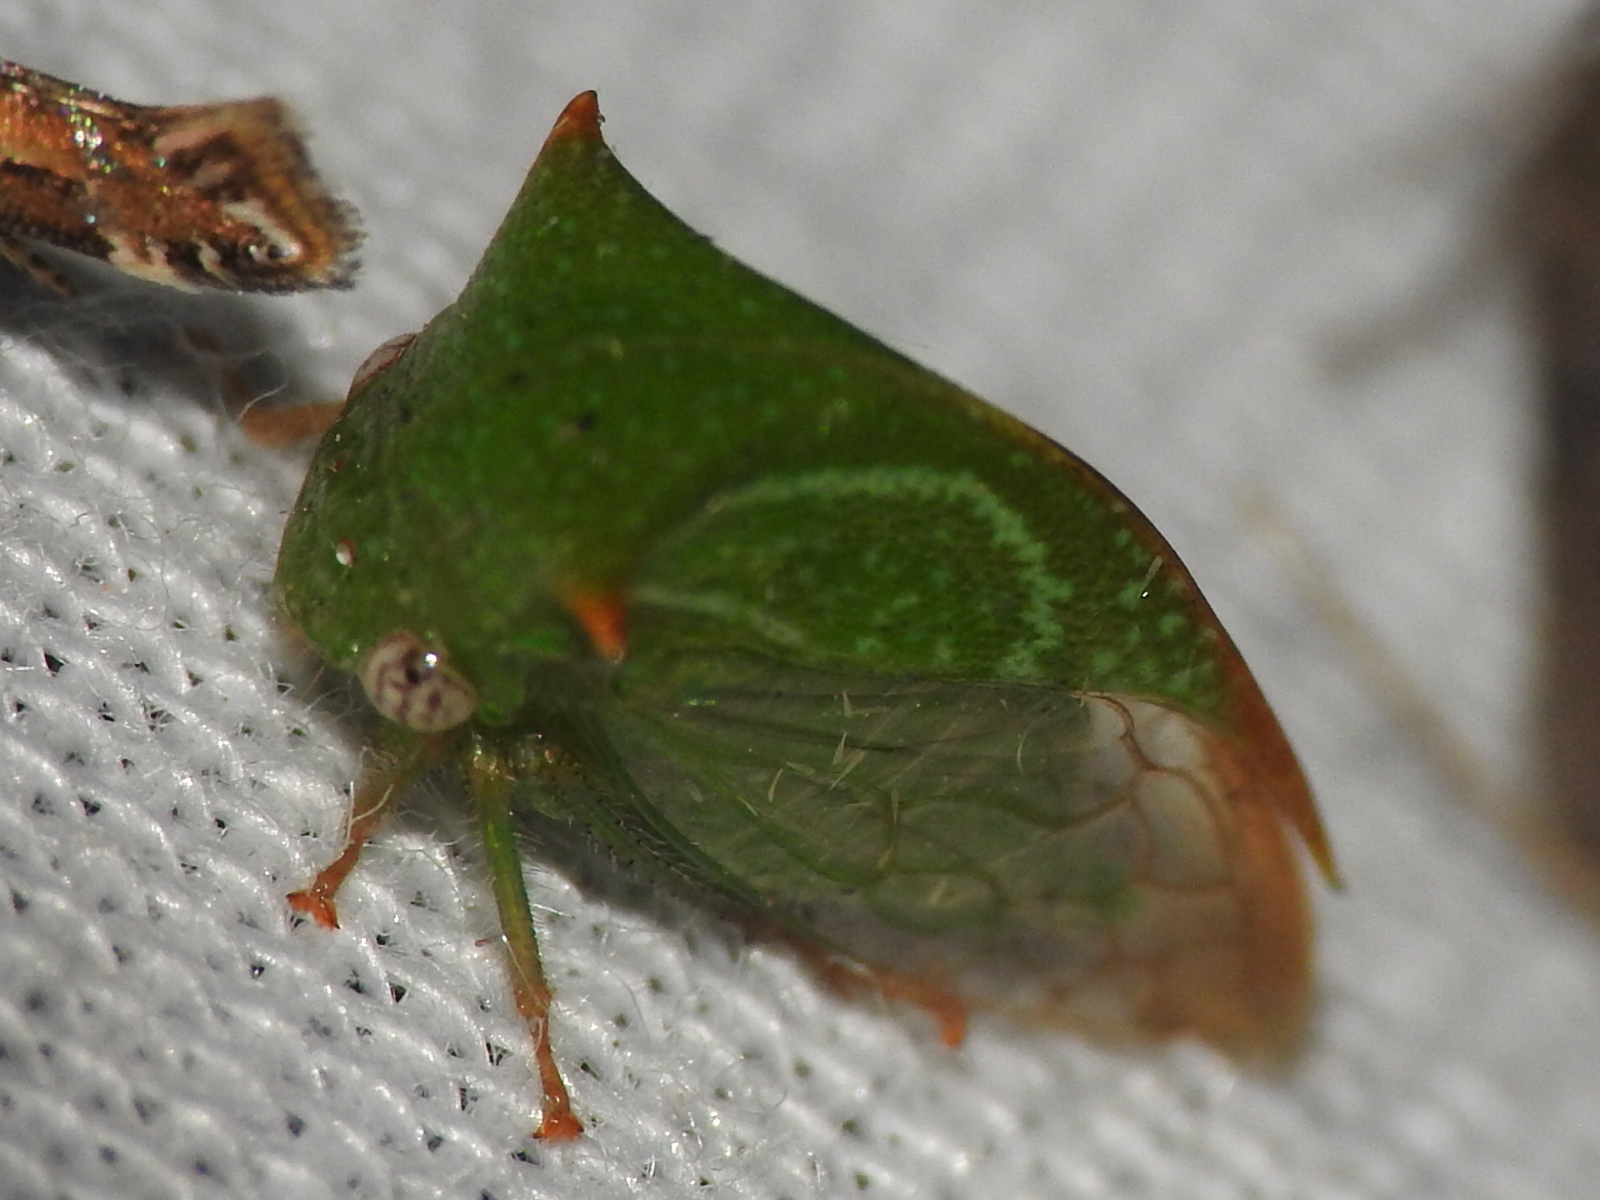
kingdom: Animalia
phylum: Arthropoda
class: Insecta
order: Hemiptera
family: Membracidae
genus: Stictolobus
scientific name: Stictolobus arcuatus
